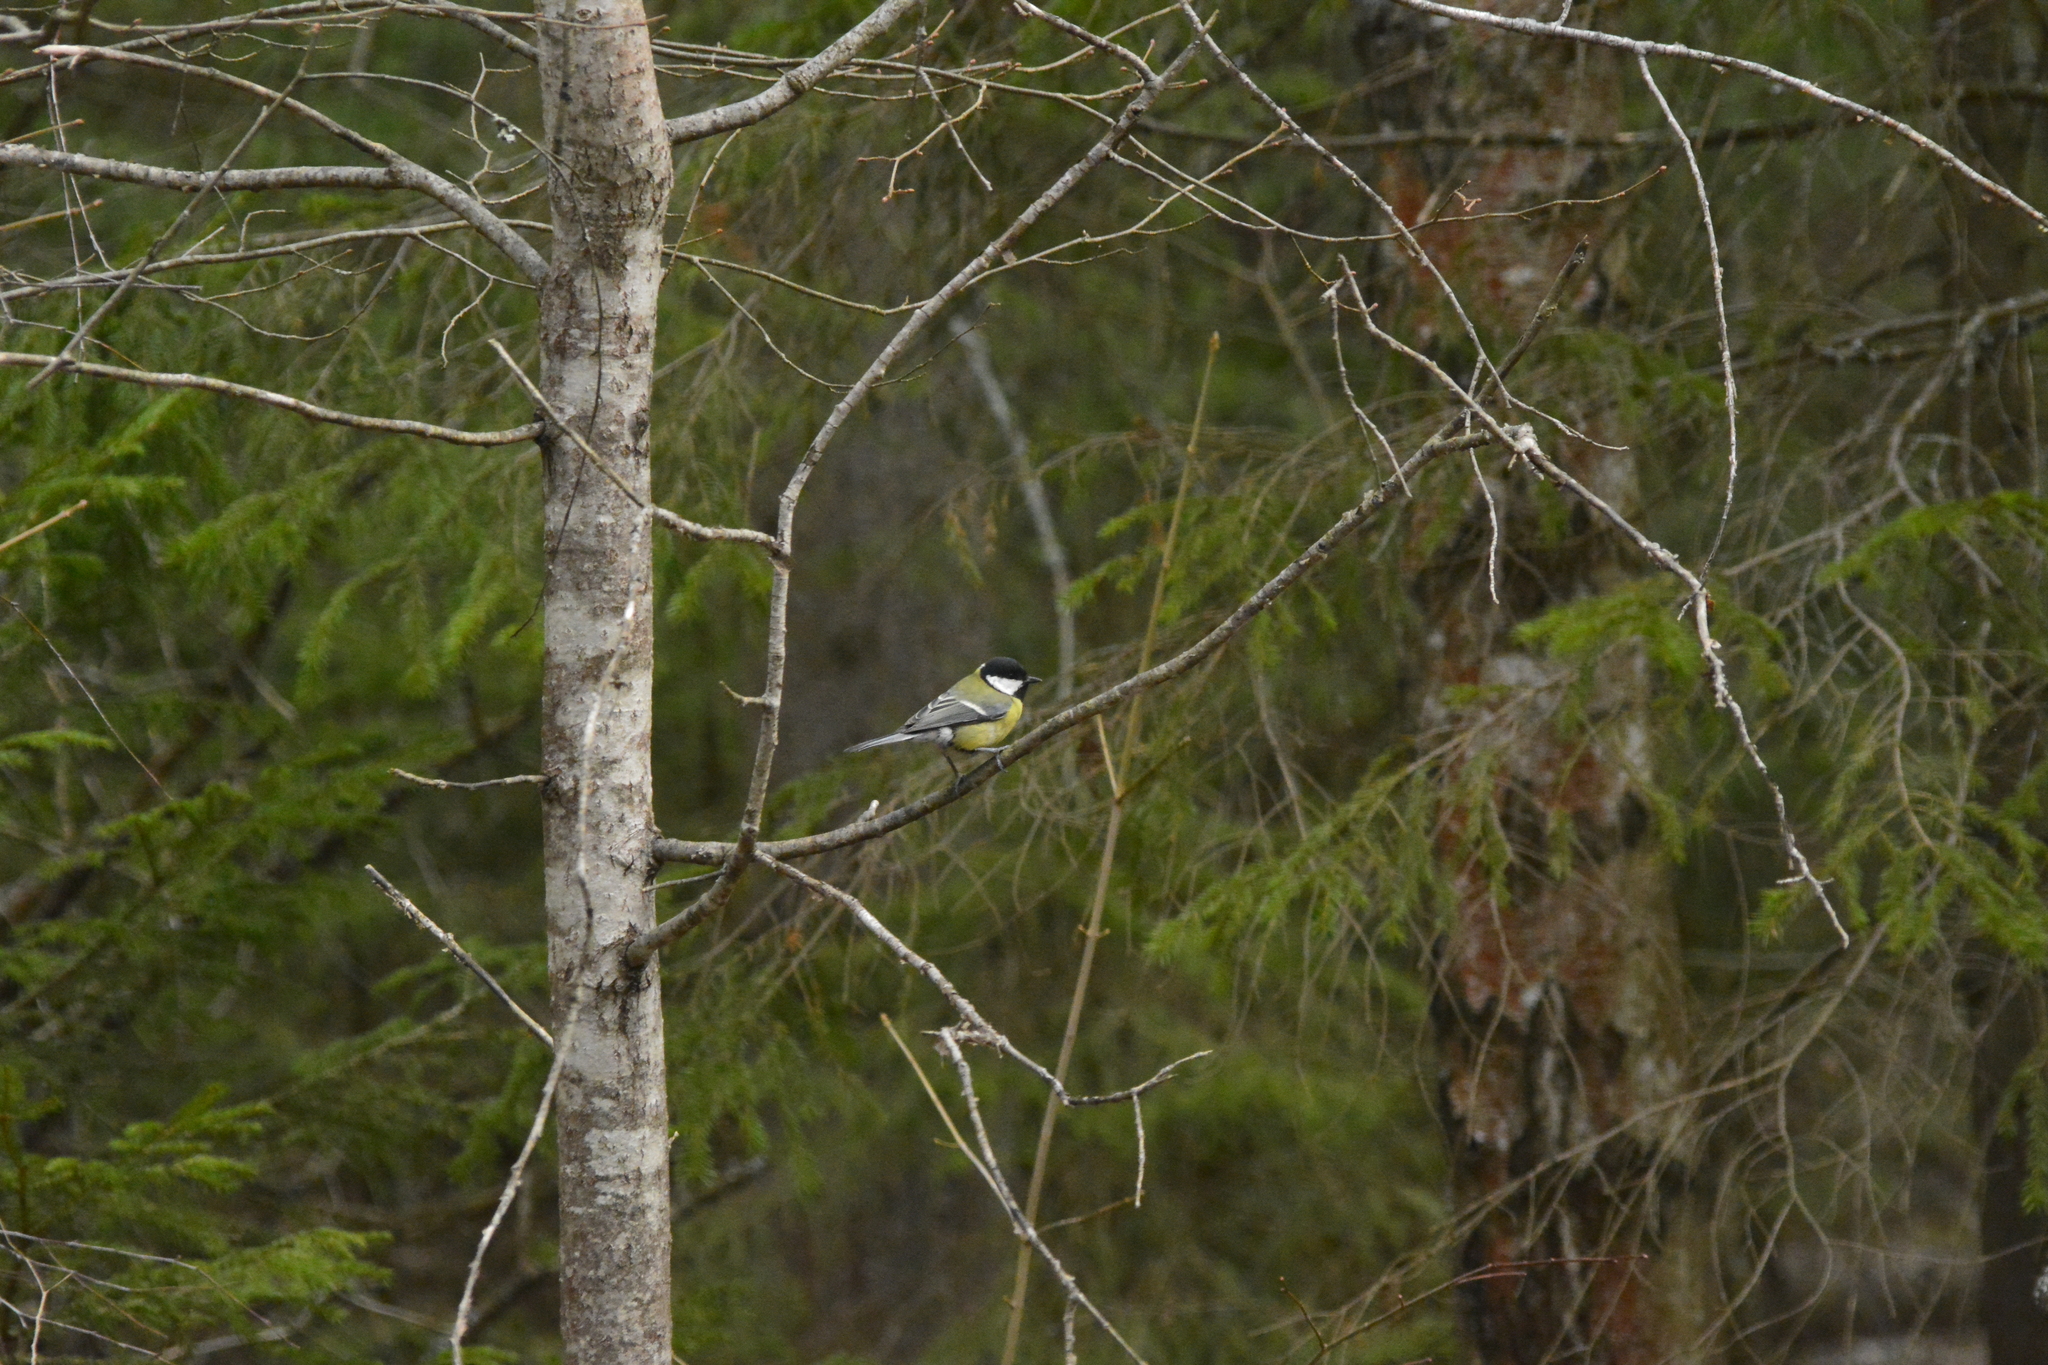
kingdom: Animalia
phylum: Chordata
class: Aves
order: Passeriformes
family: Paridae
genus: Parus
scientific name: Parus major
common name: Great tit
